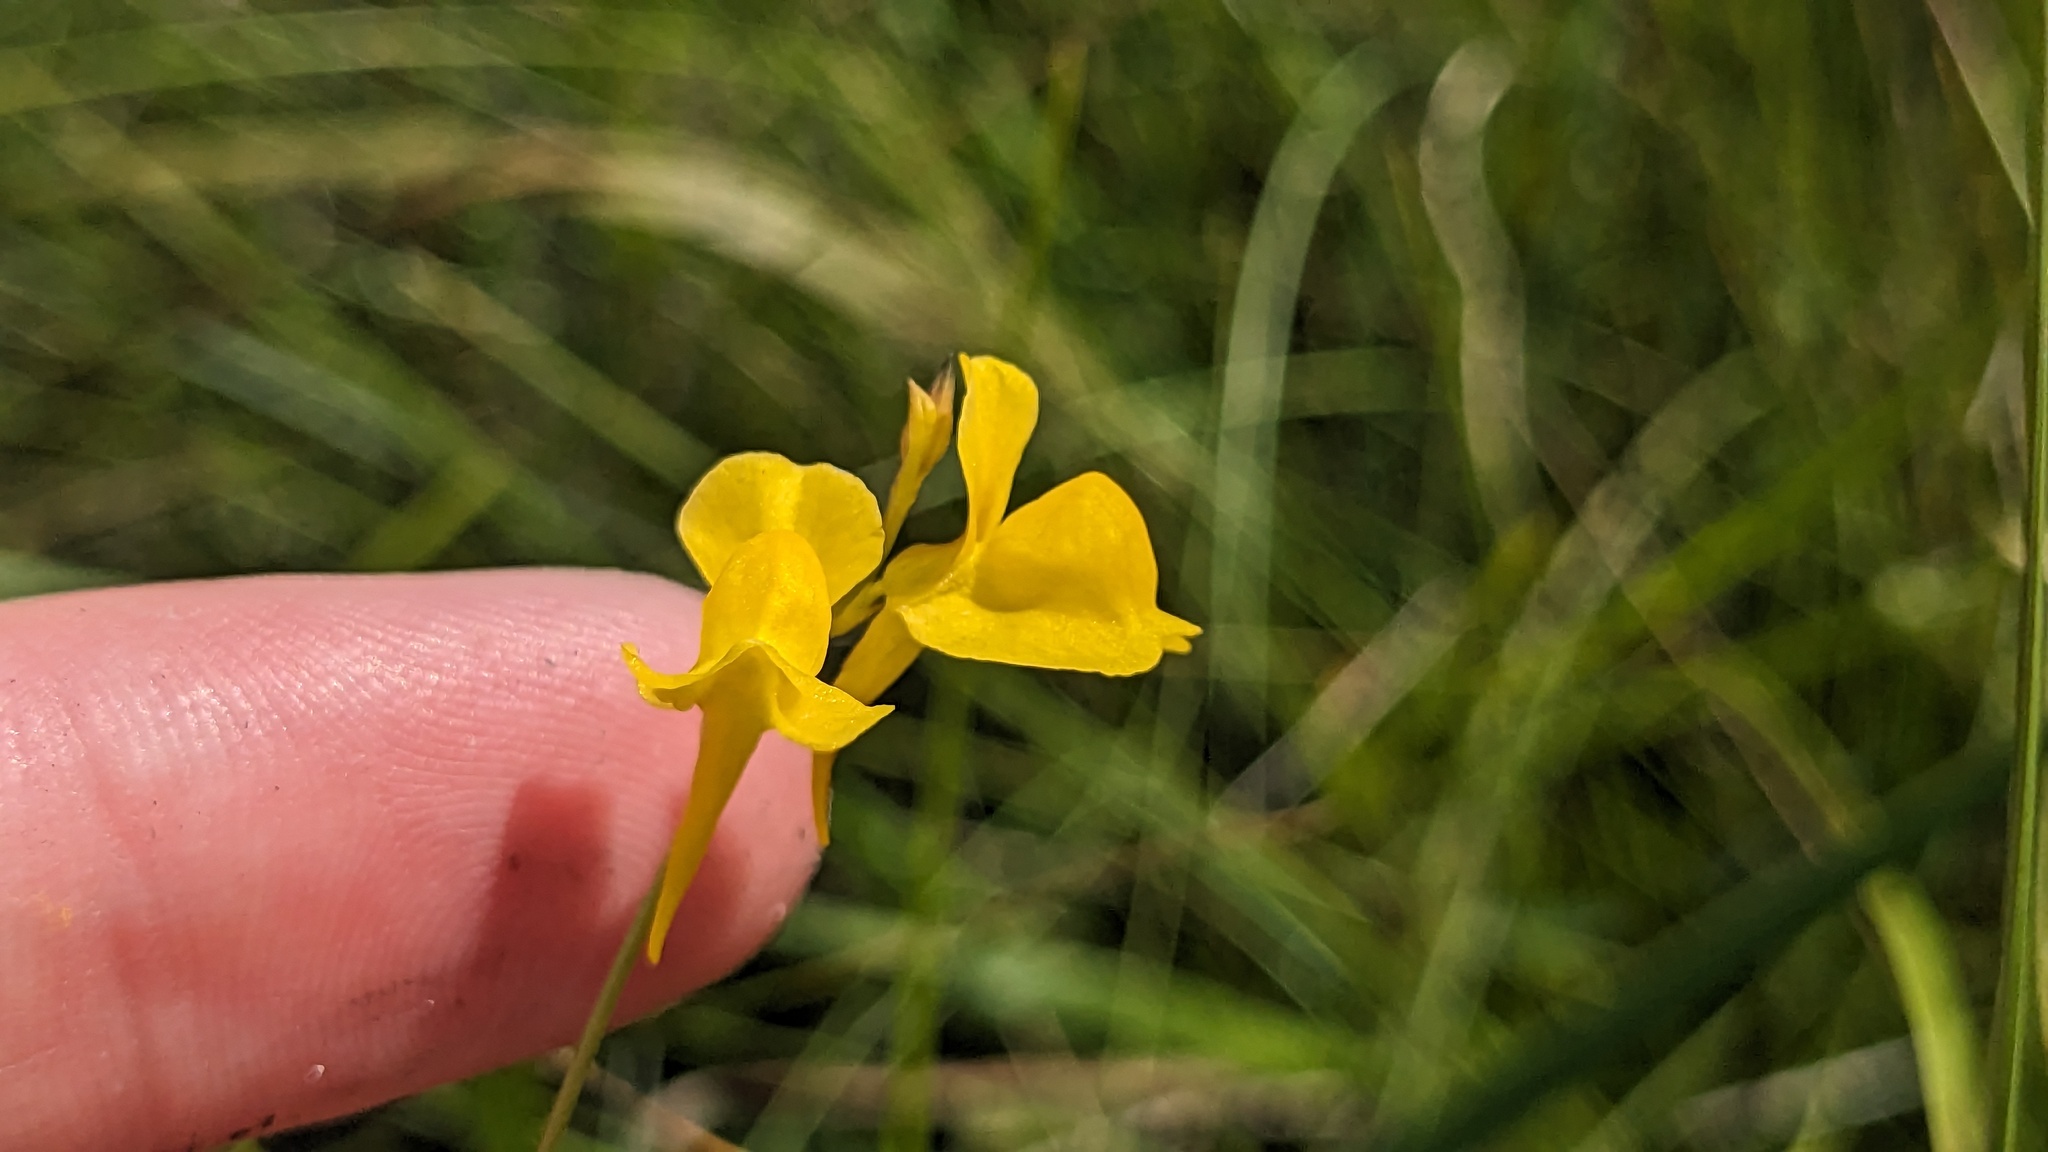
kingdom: Plantae
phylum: Tracheophyta
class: Magnoliopsida
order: Lamiales
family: Lentibulariaceae
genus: Utricularia
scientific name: Utricularia juncea
